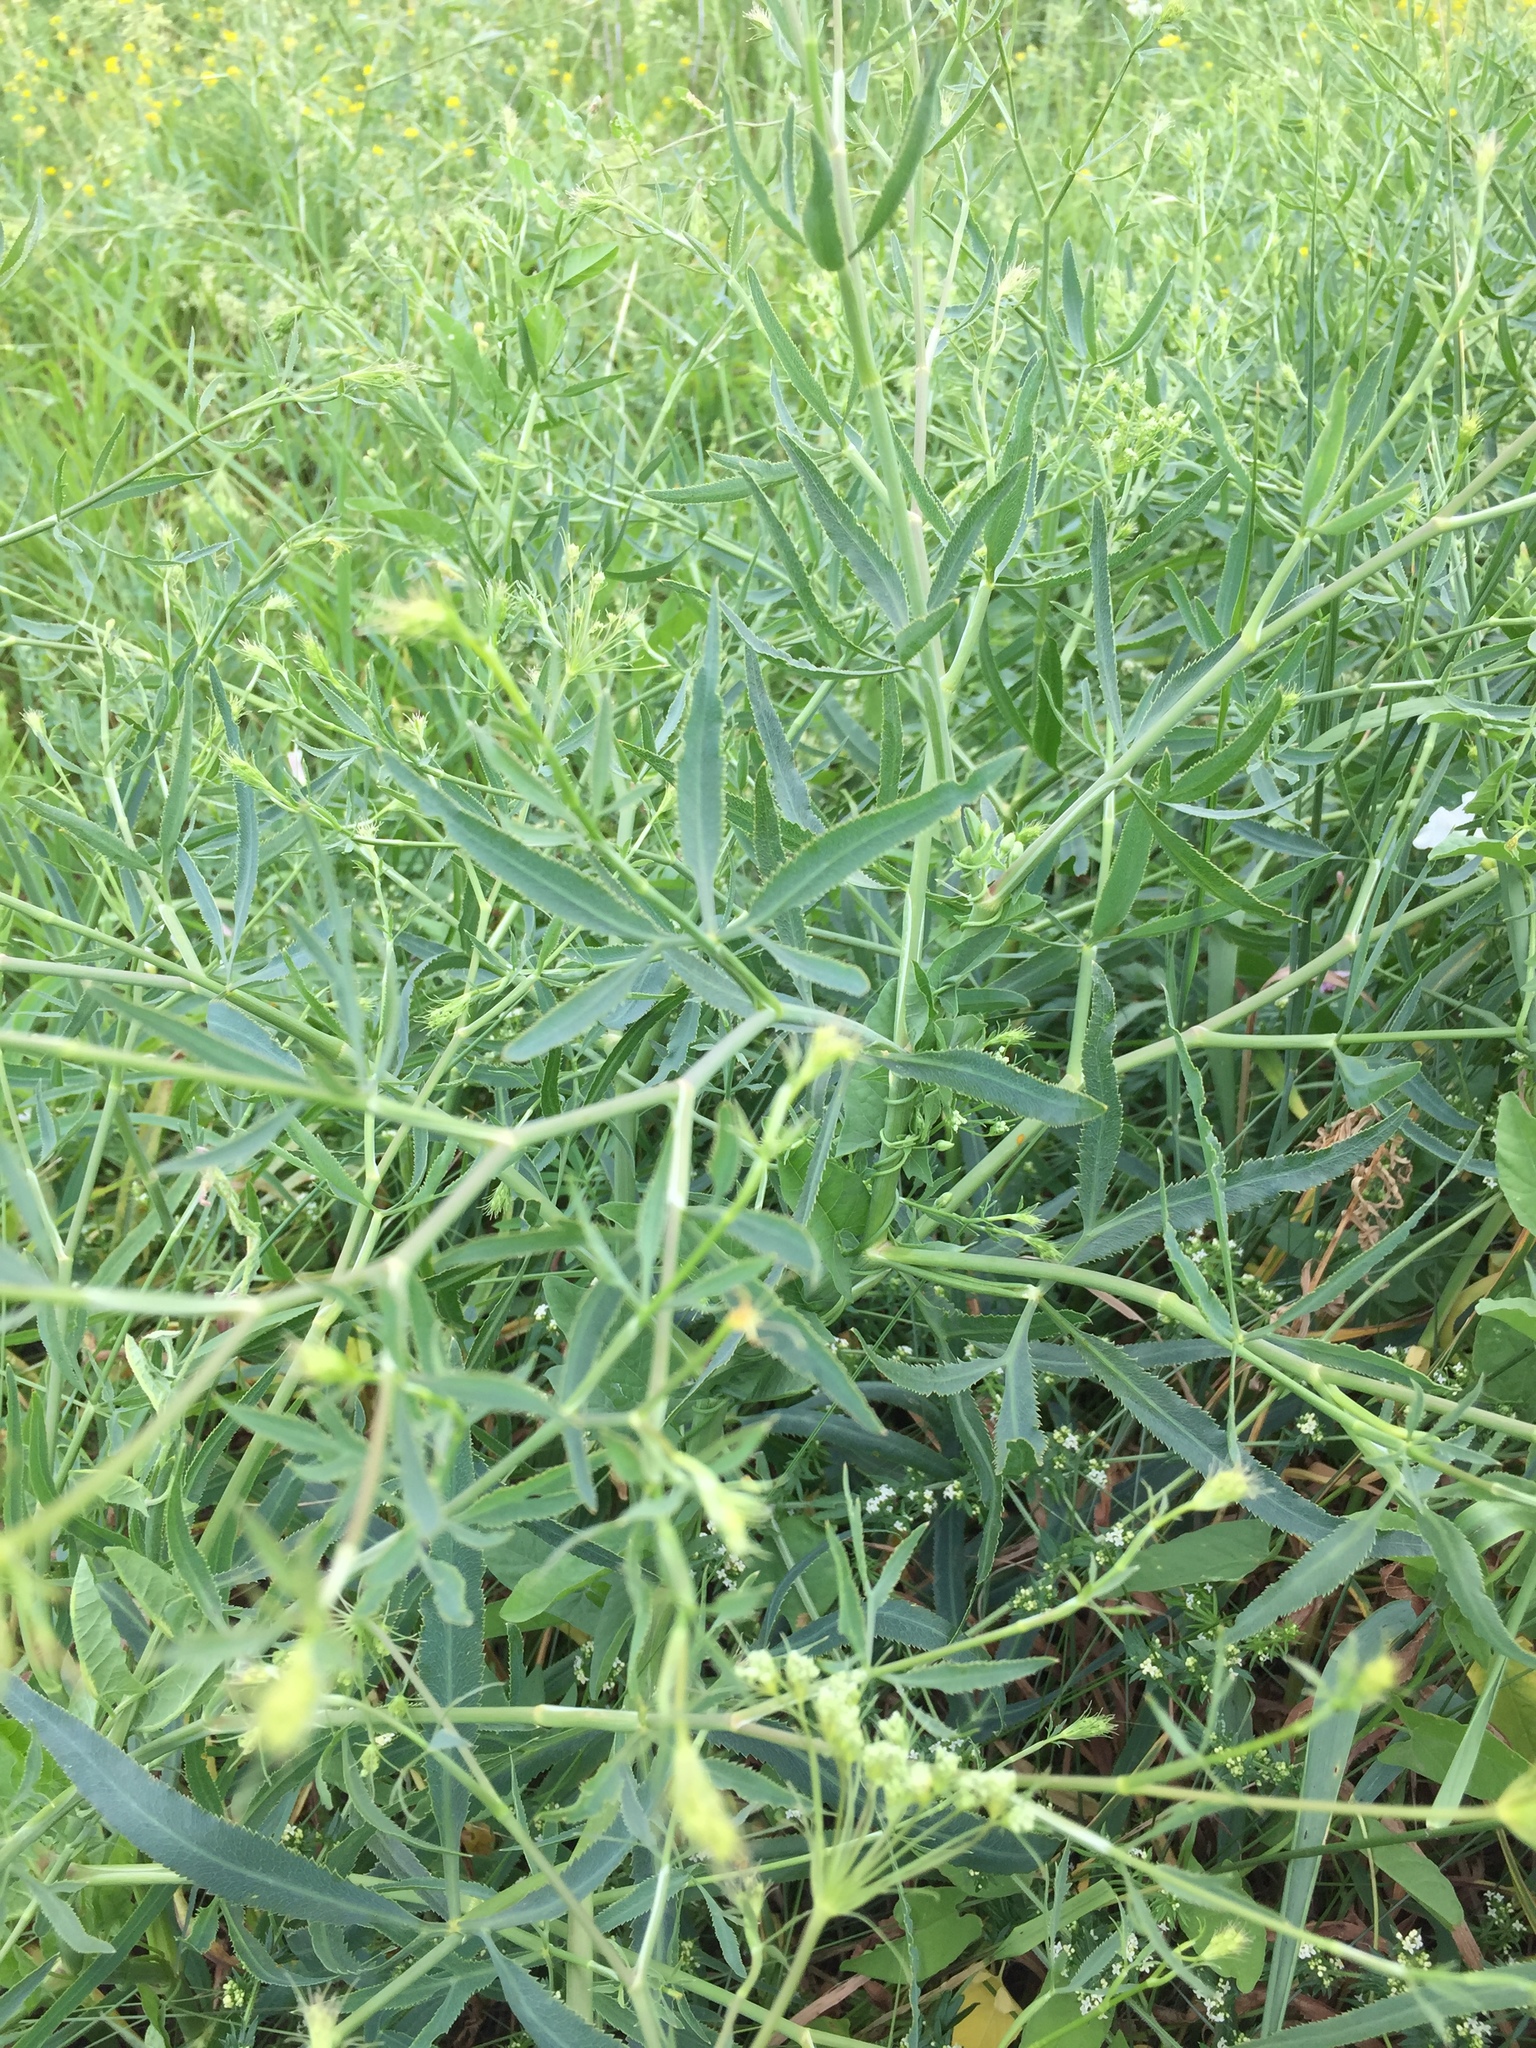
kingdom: Plantae
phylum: Tracheophyta
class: Magnoliopsida
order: Apiales
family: Apiaceae
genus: Falcaria
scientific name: Falcaria vulgaris
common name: Longleaf
